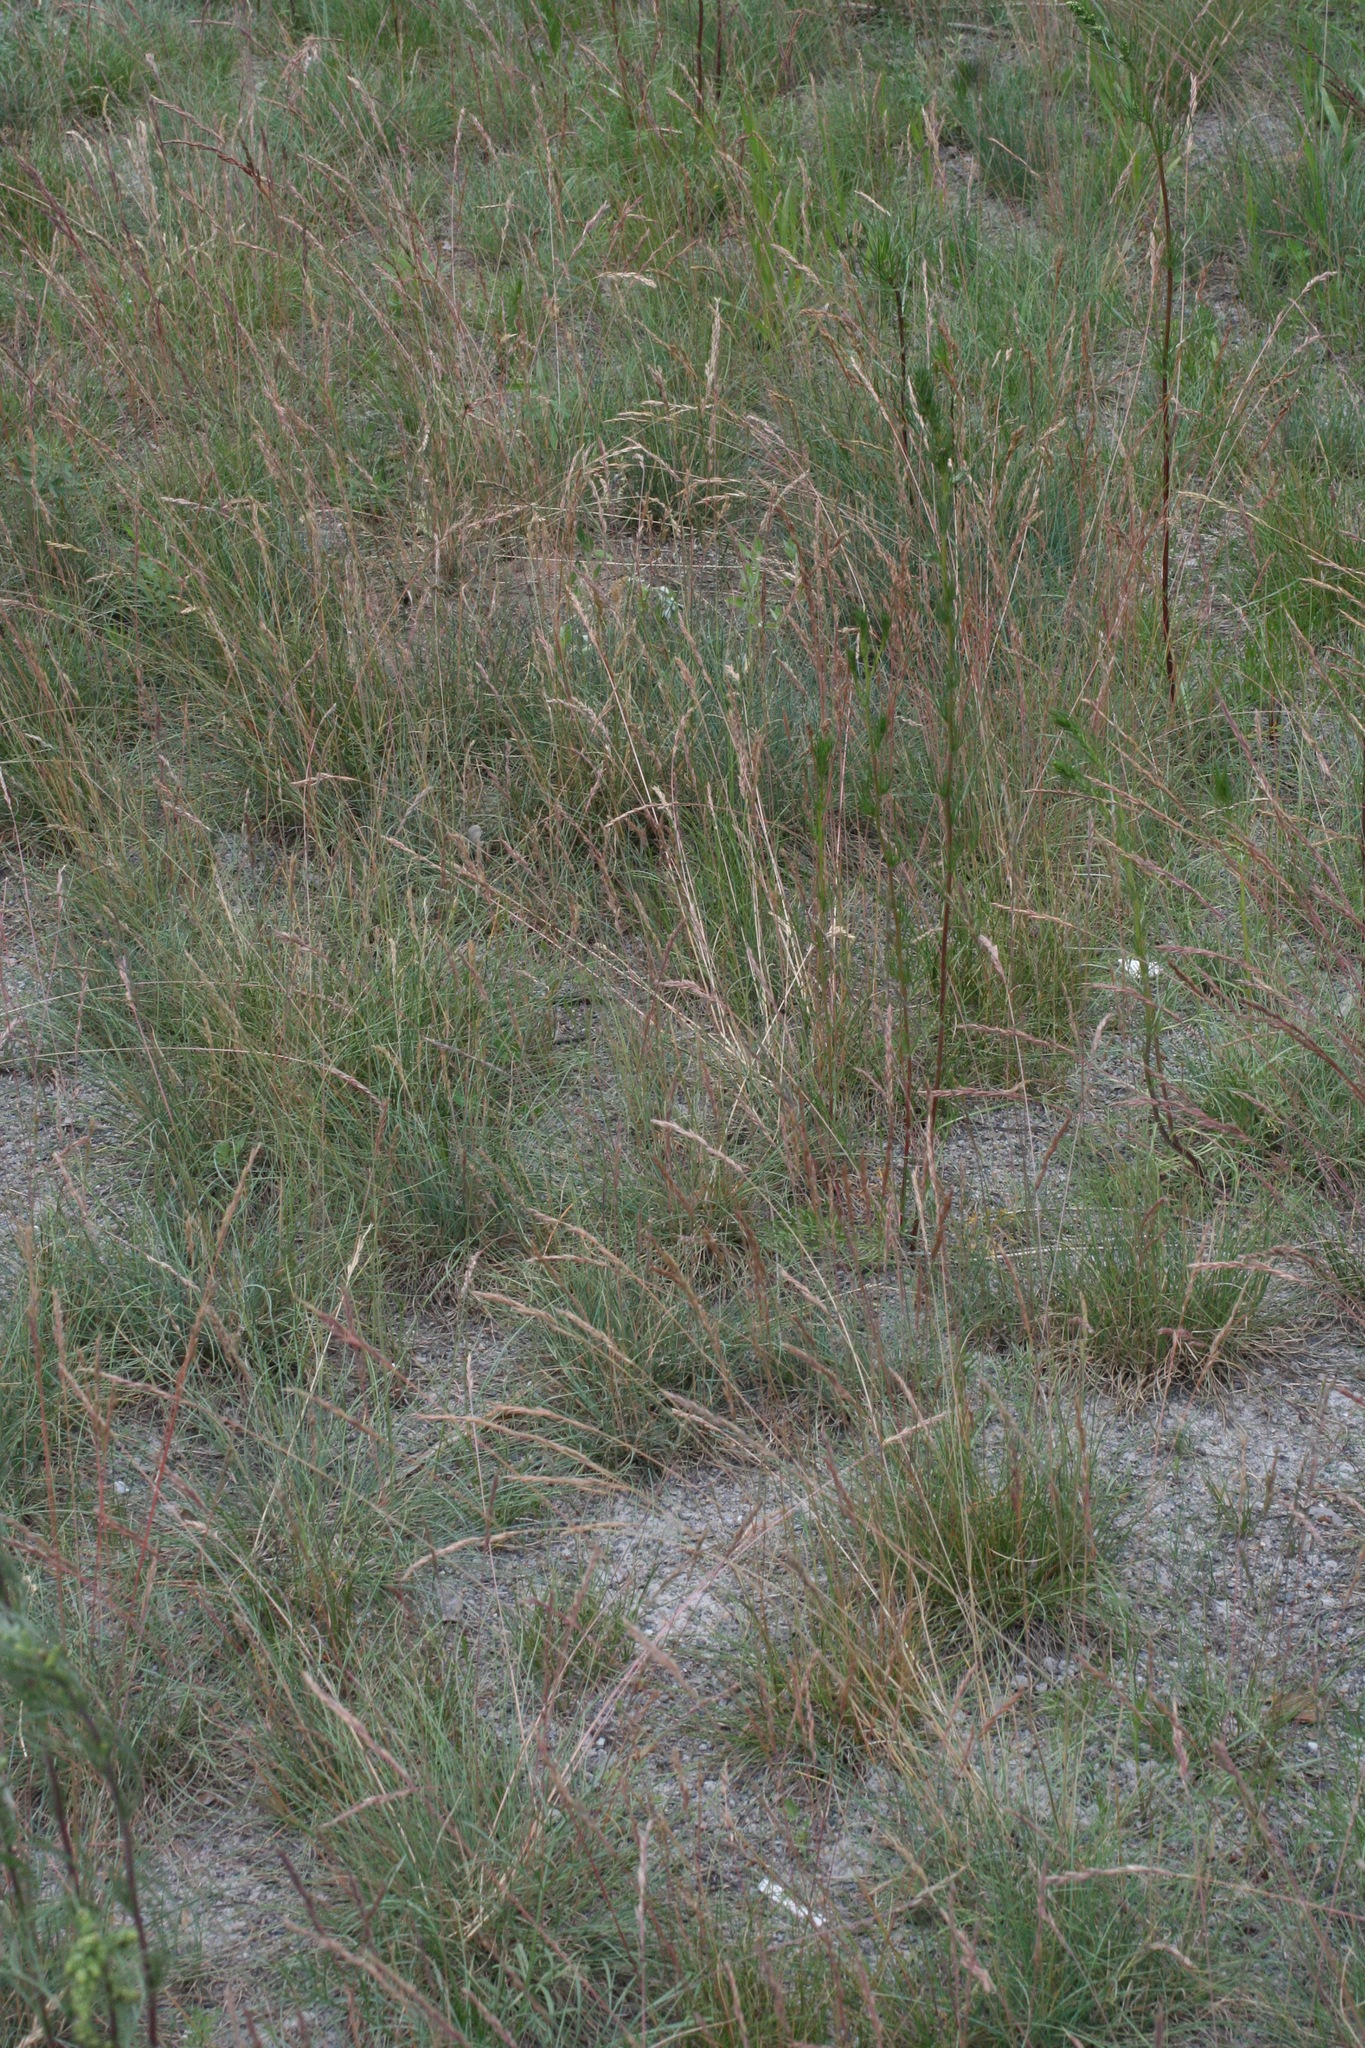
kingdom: Plantae
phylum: Tracheophyta
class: Liliopsida
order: Poales
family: Poaceae
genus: Festuca
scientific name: Festuca valesiaca
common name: Volga fescue
